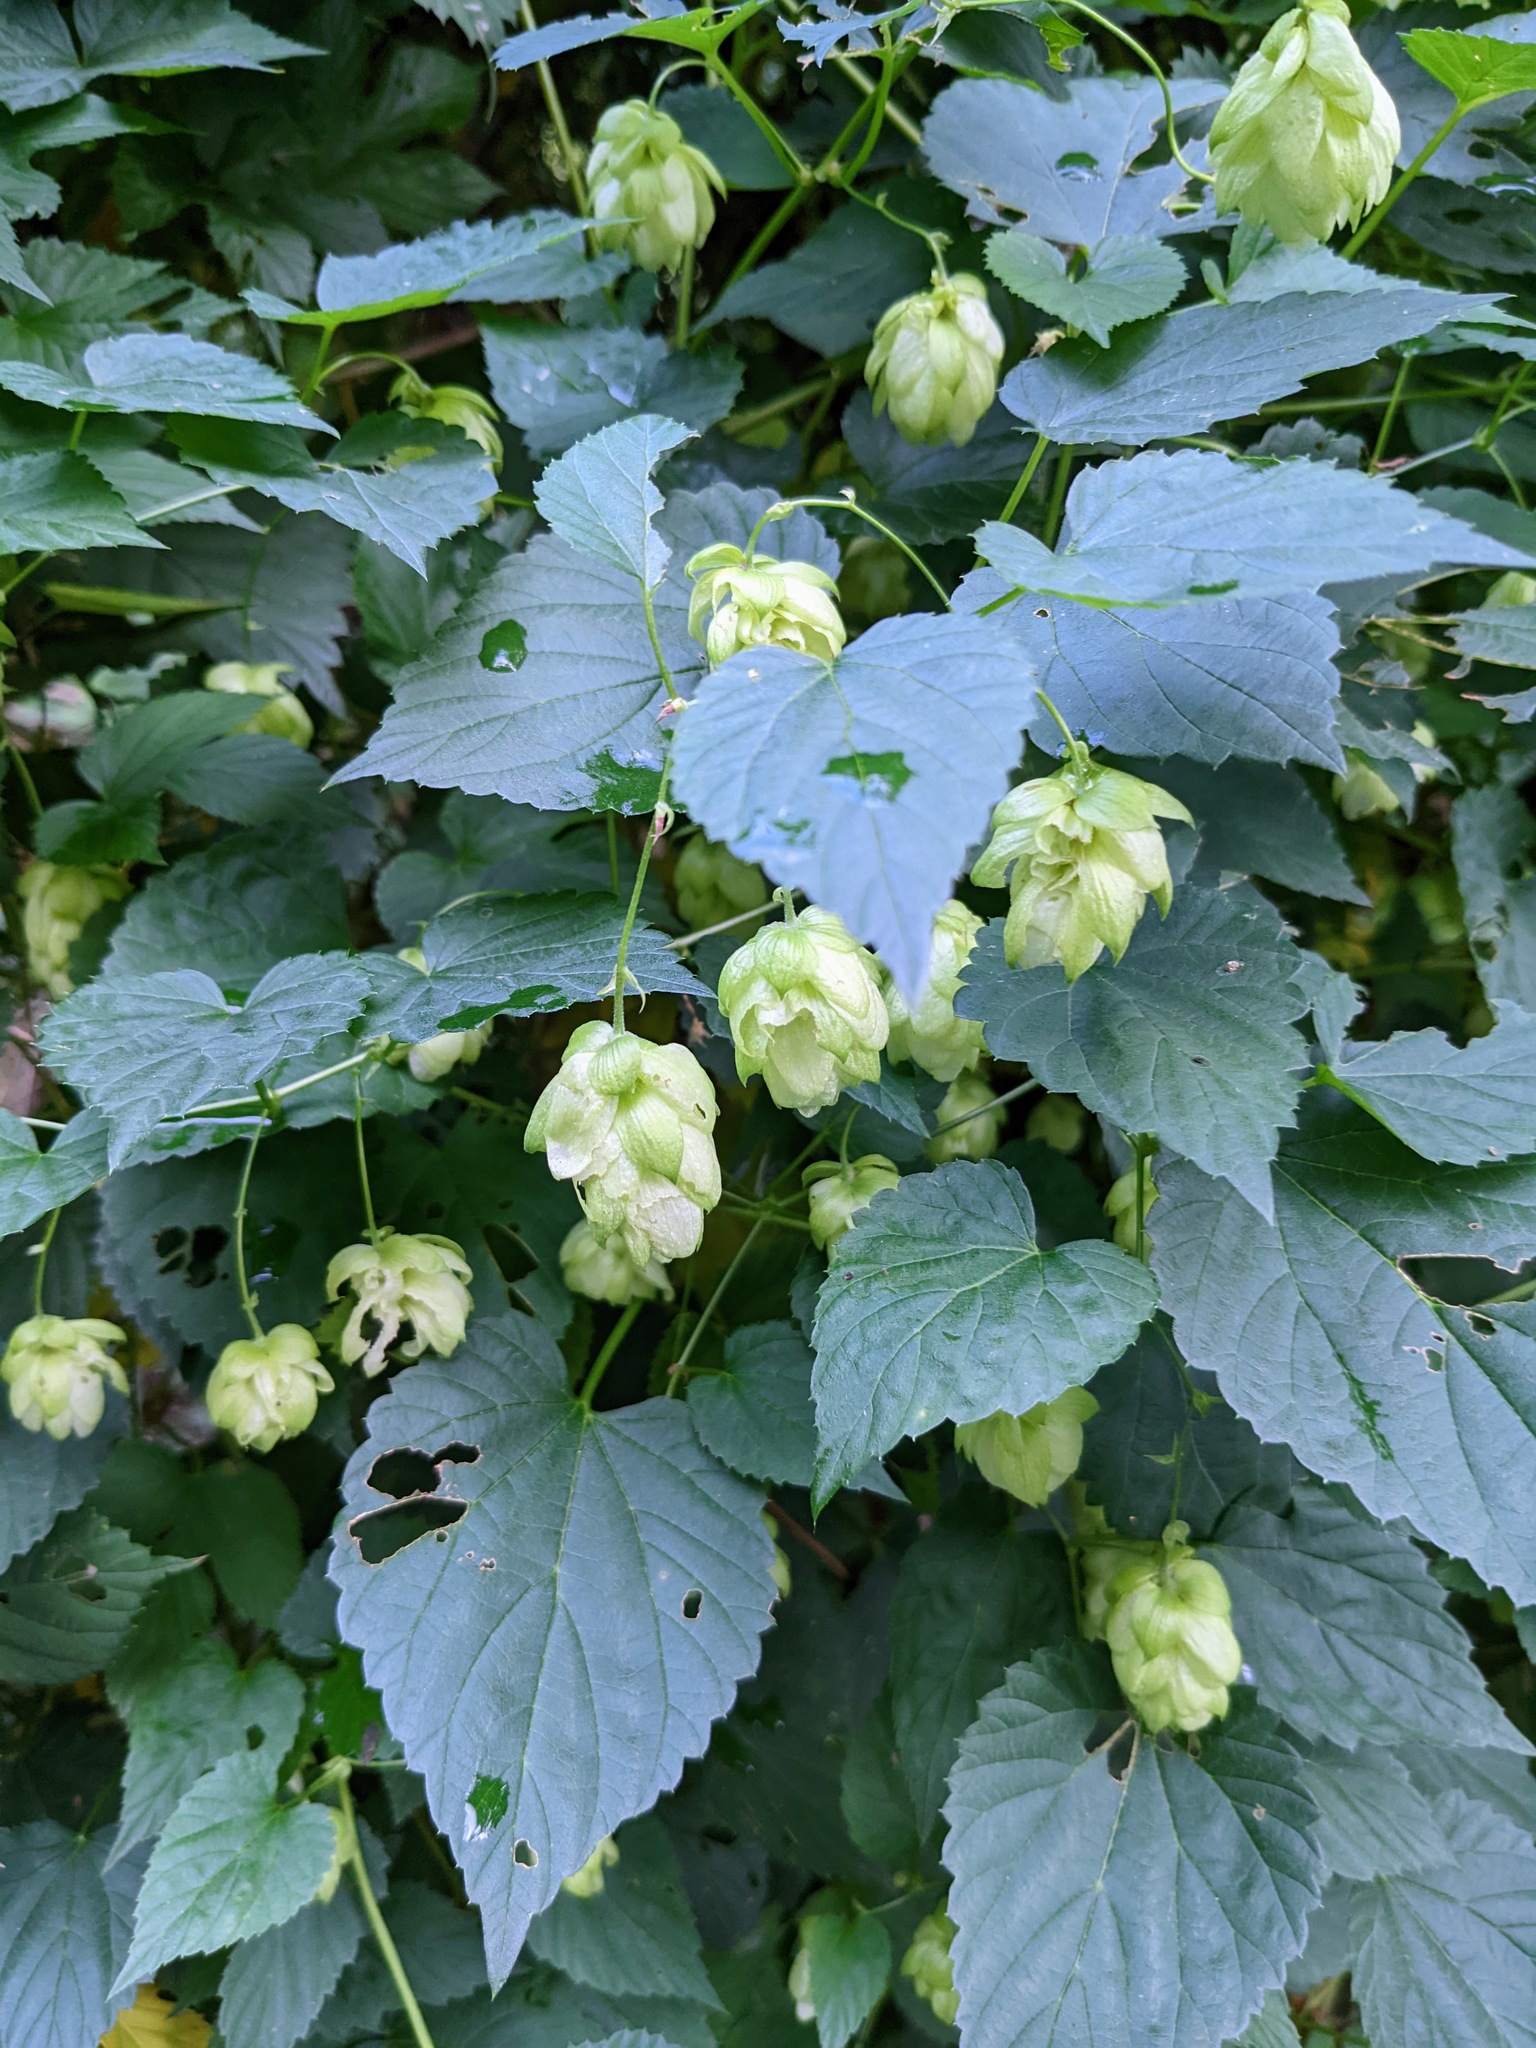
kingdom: Plantae
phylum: Tracheophyta
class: Magnoliopsida
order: Rosales
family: Cannabaceae
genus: Humulus
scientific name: Humulus lupulus
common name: Hop
